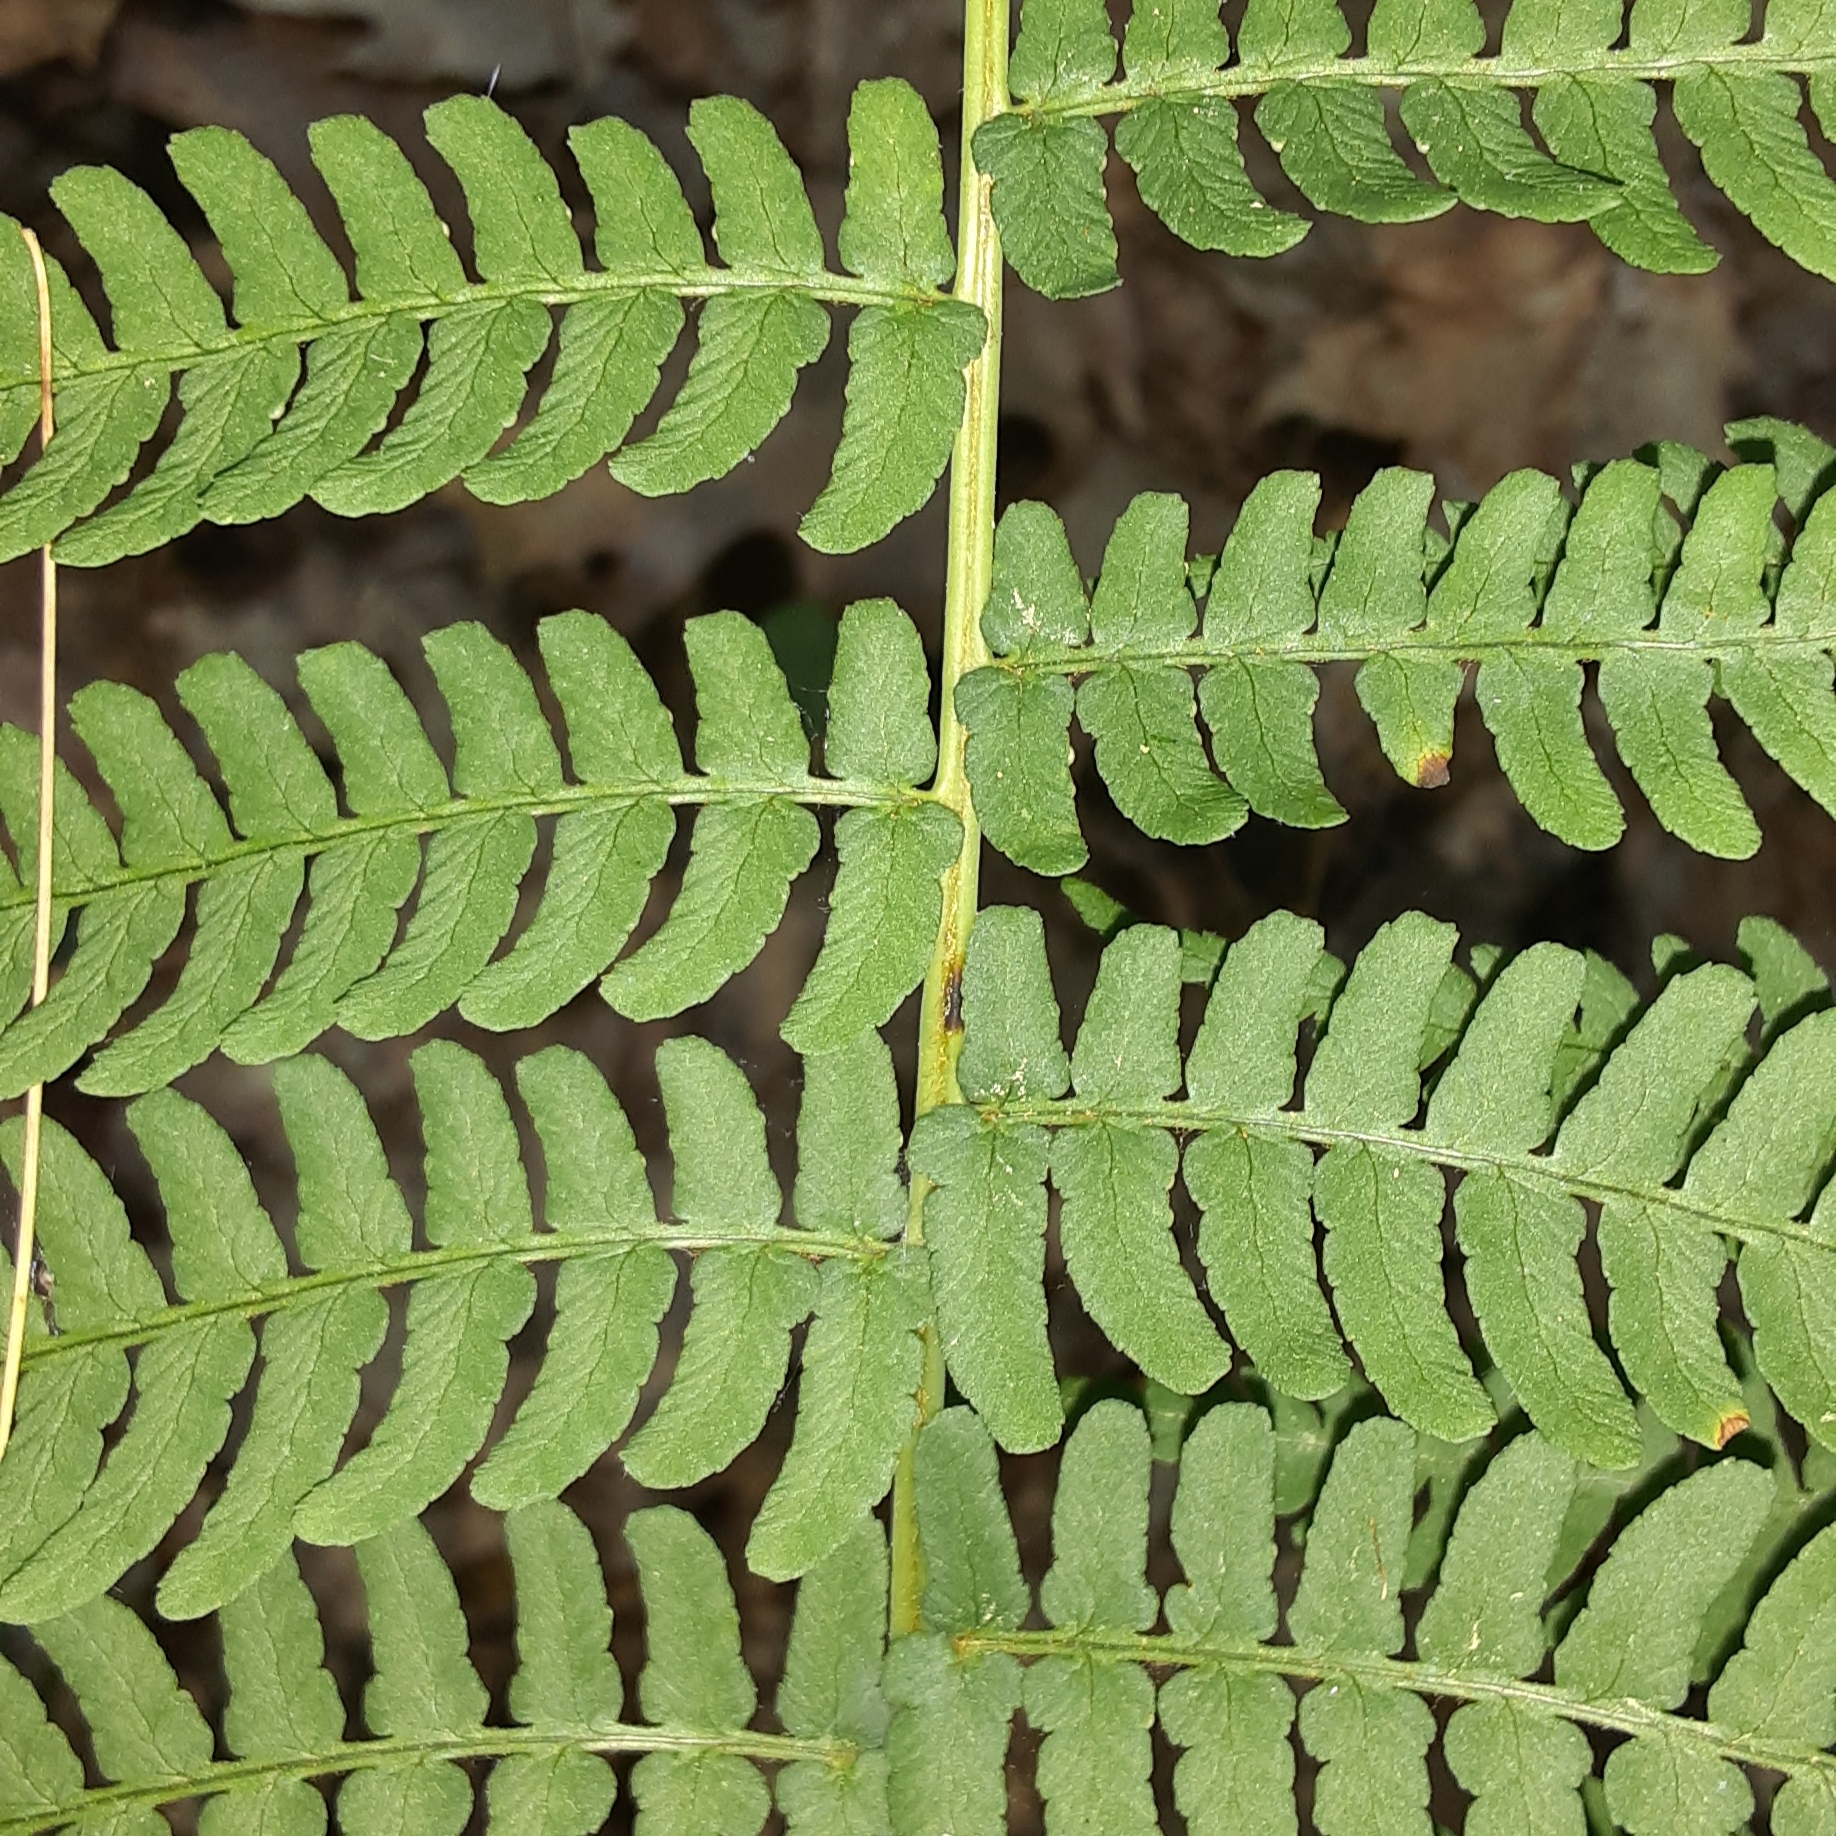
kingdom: Plantae
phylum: Tracheophyta
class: Polypodiopsida
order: Polypodiales
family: Dryopteridaceae
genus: Dryopteris
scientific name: Dryopteris marginalis
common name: Marginal wood fern
